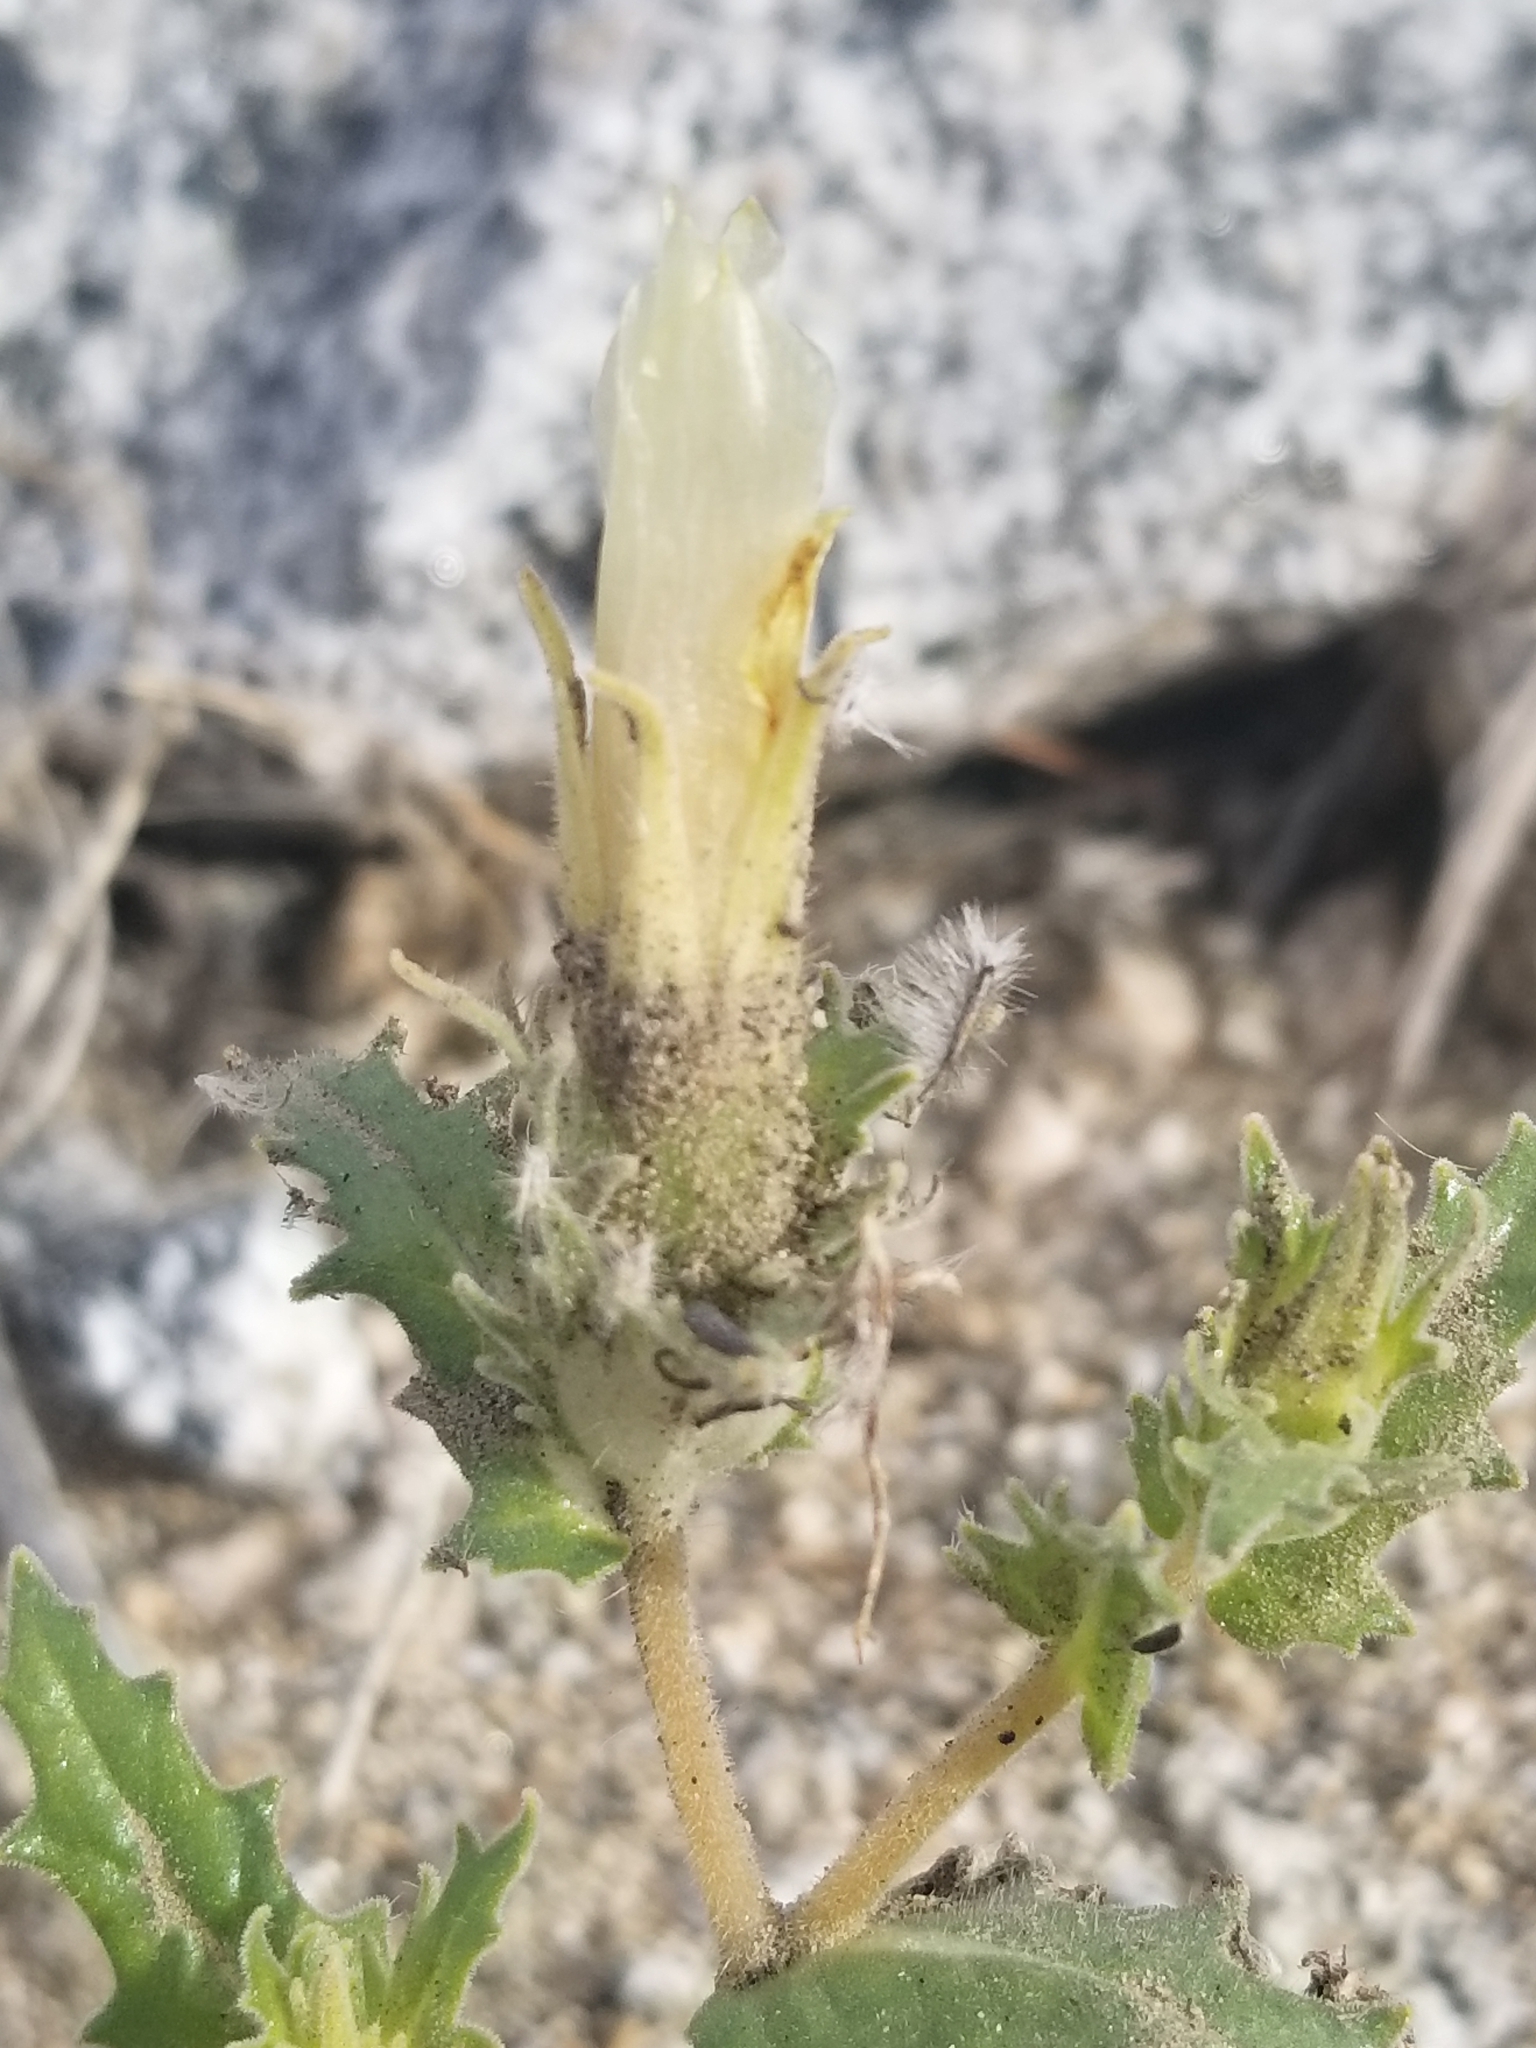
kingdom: Plantae
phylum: Tracheophyta
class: Magnoliopsida
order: Cornales
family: Loasaceae
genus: Mentzelia
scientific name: Mentzelia involucrata
